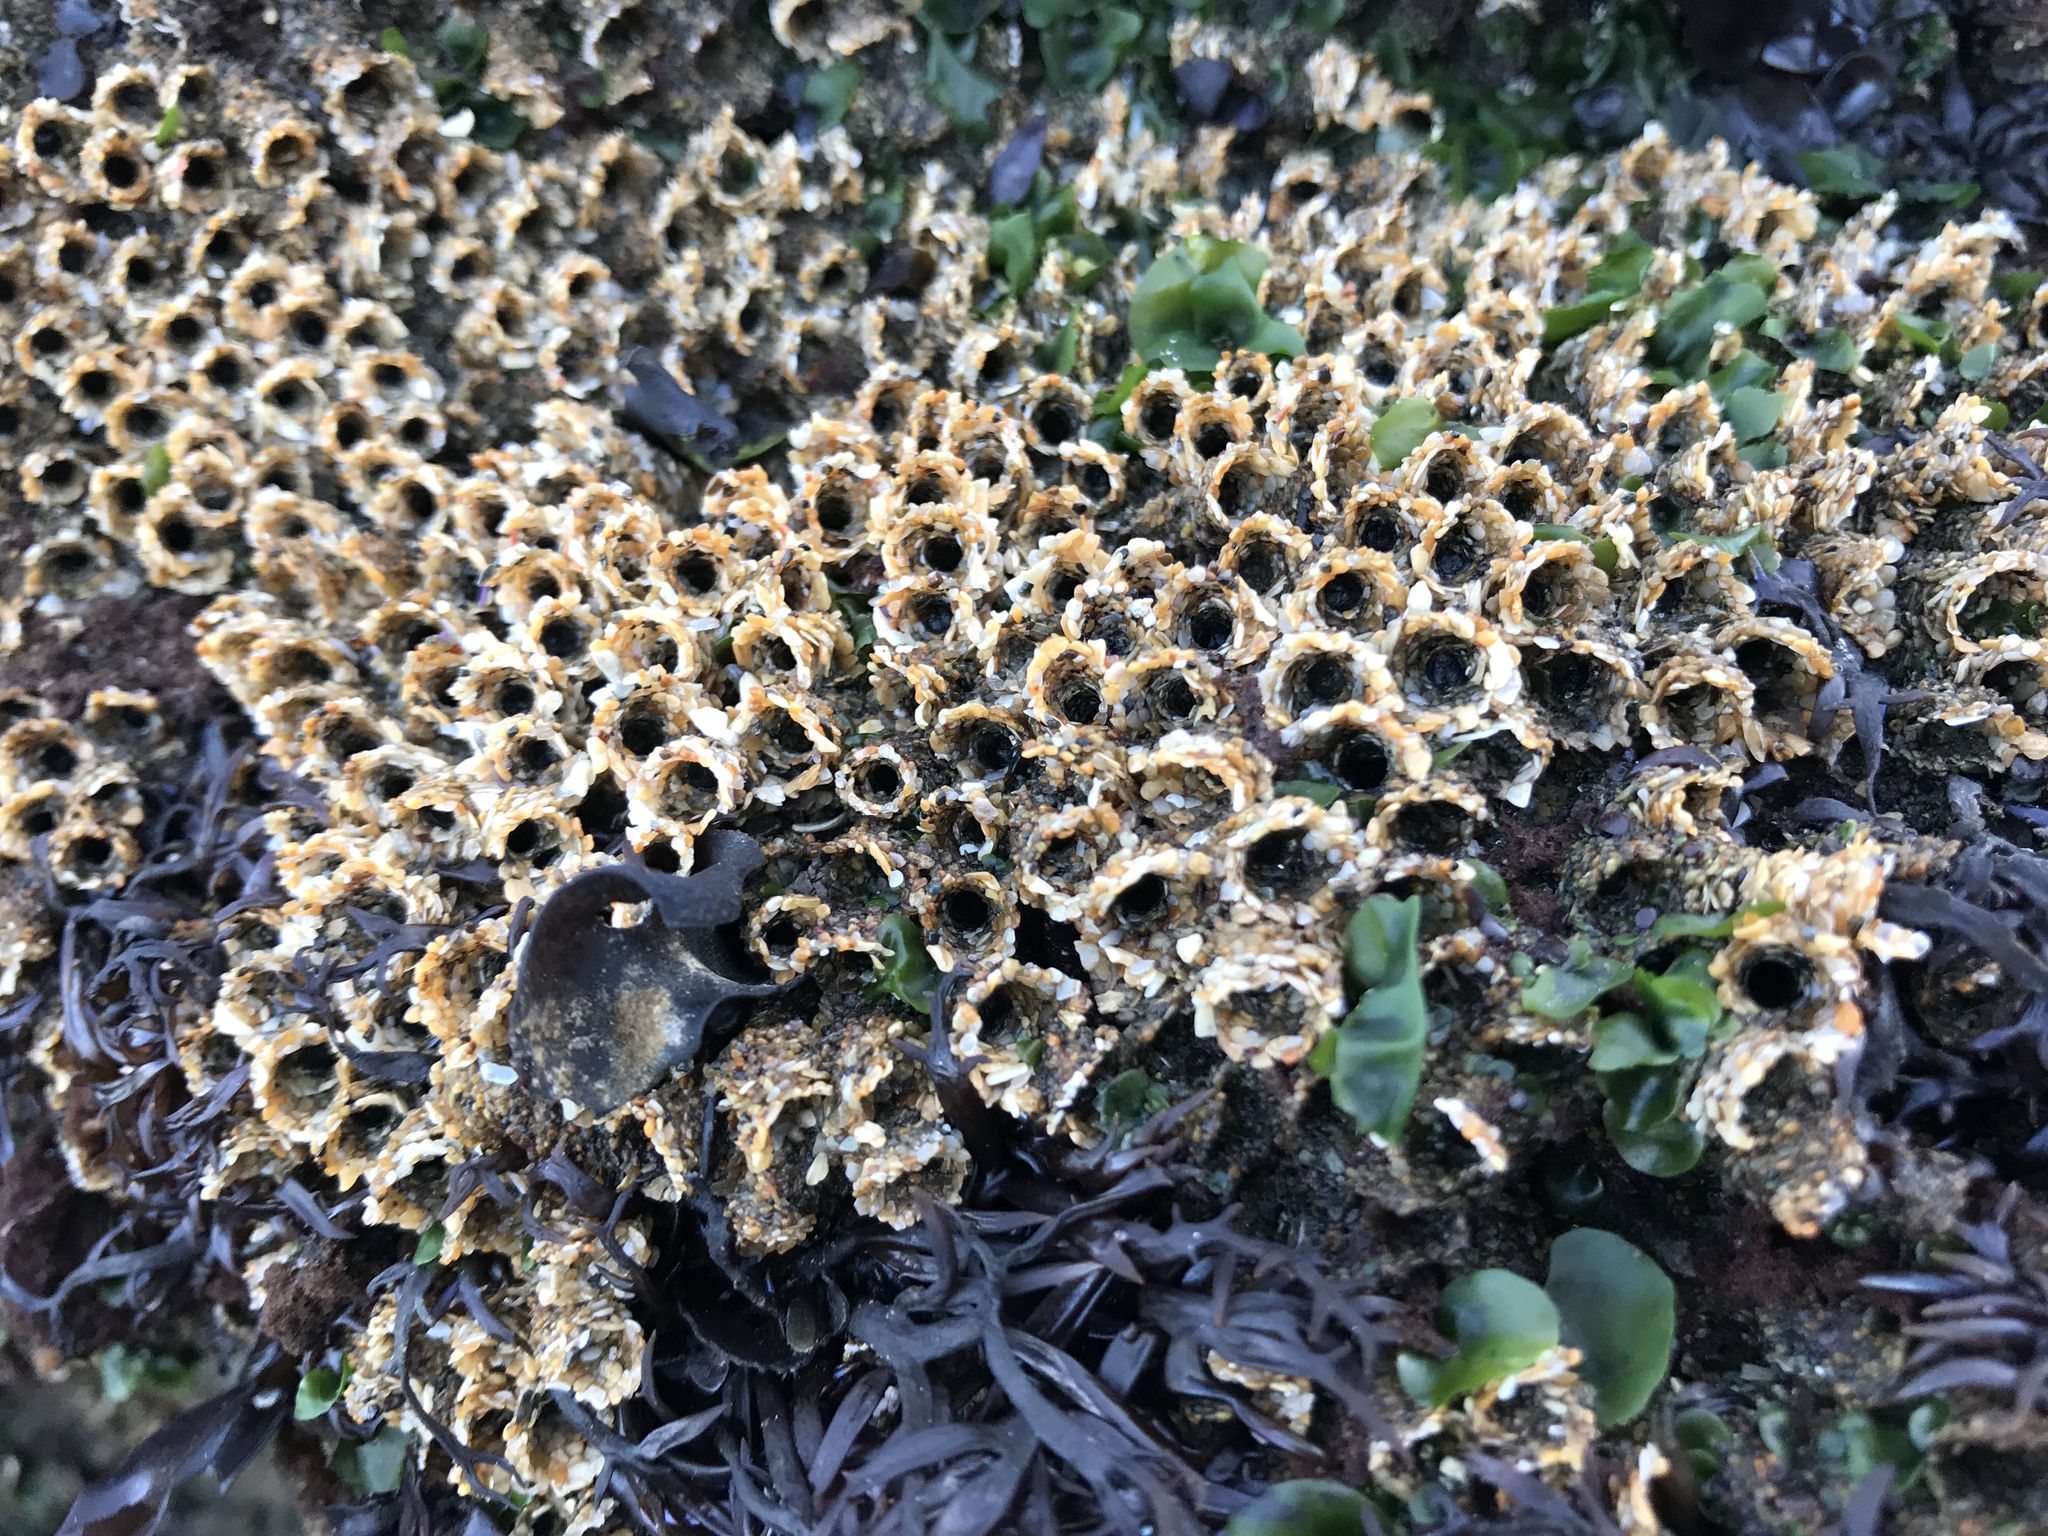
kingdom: Animalia
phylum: Annelida
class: Polychaeta
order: Sabellida
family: Sabellariidae
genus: Phragmatopoma
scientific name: Phragmatopoma californica
